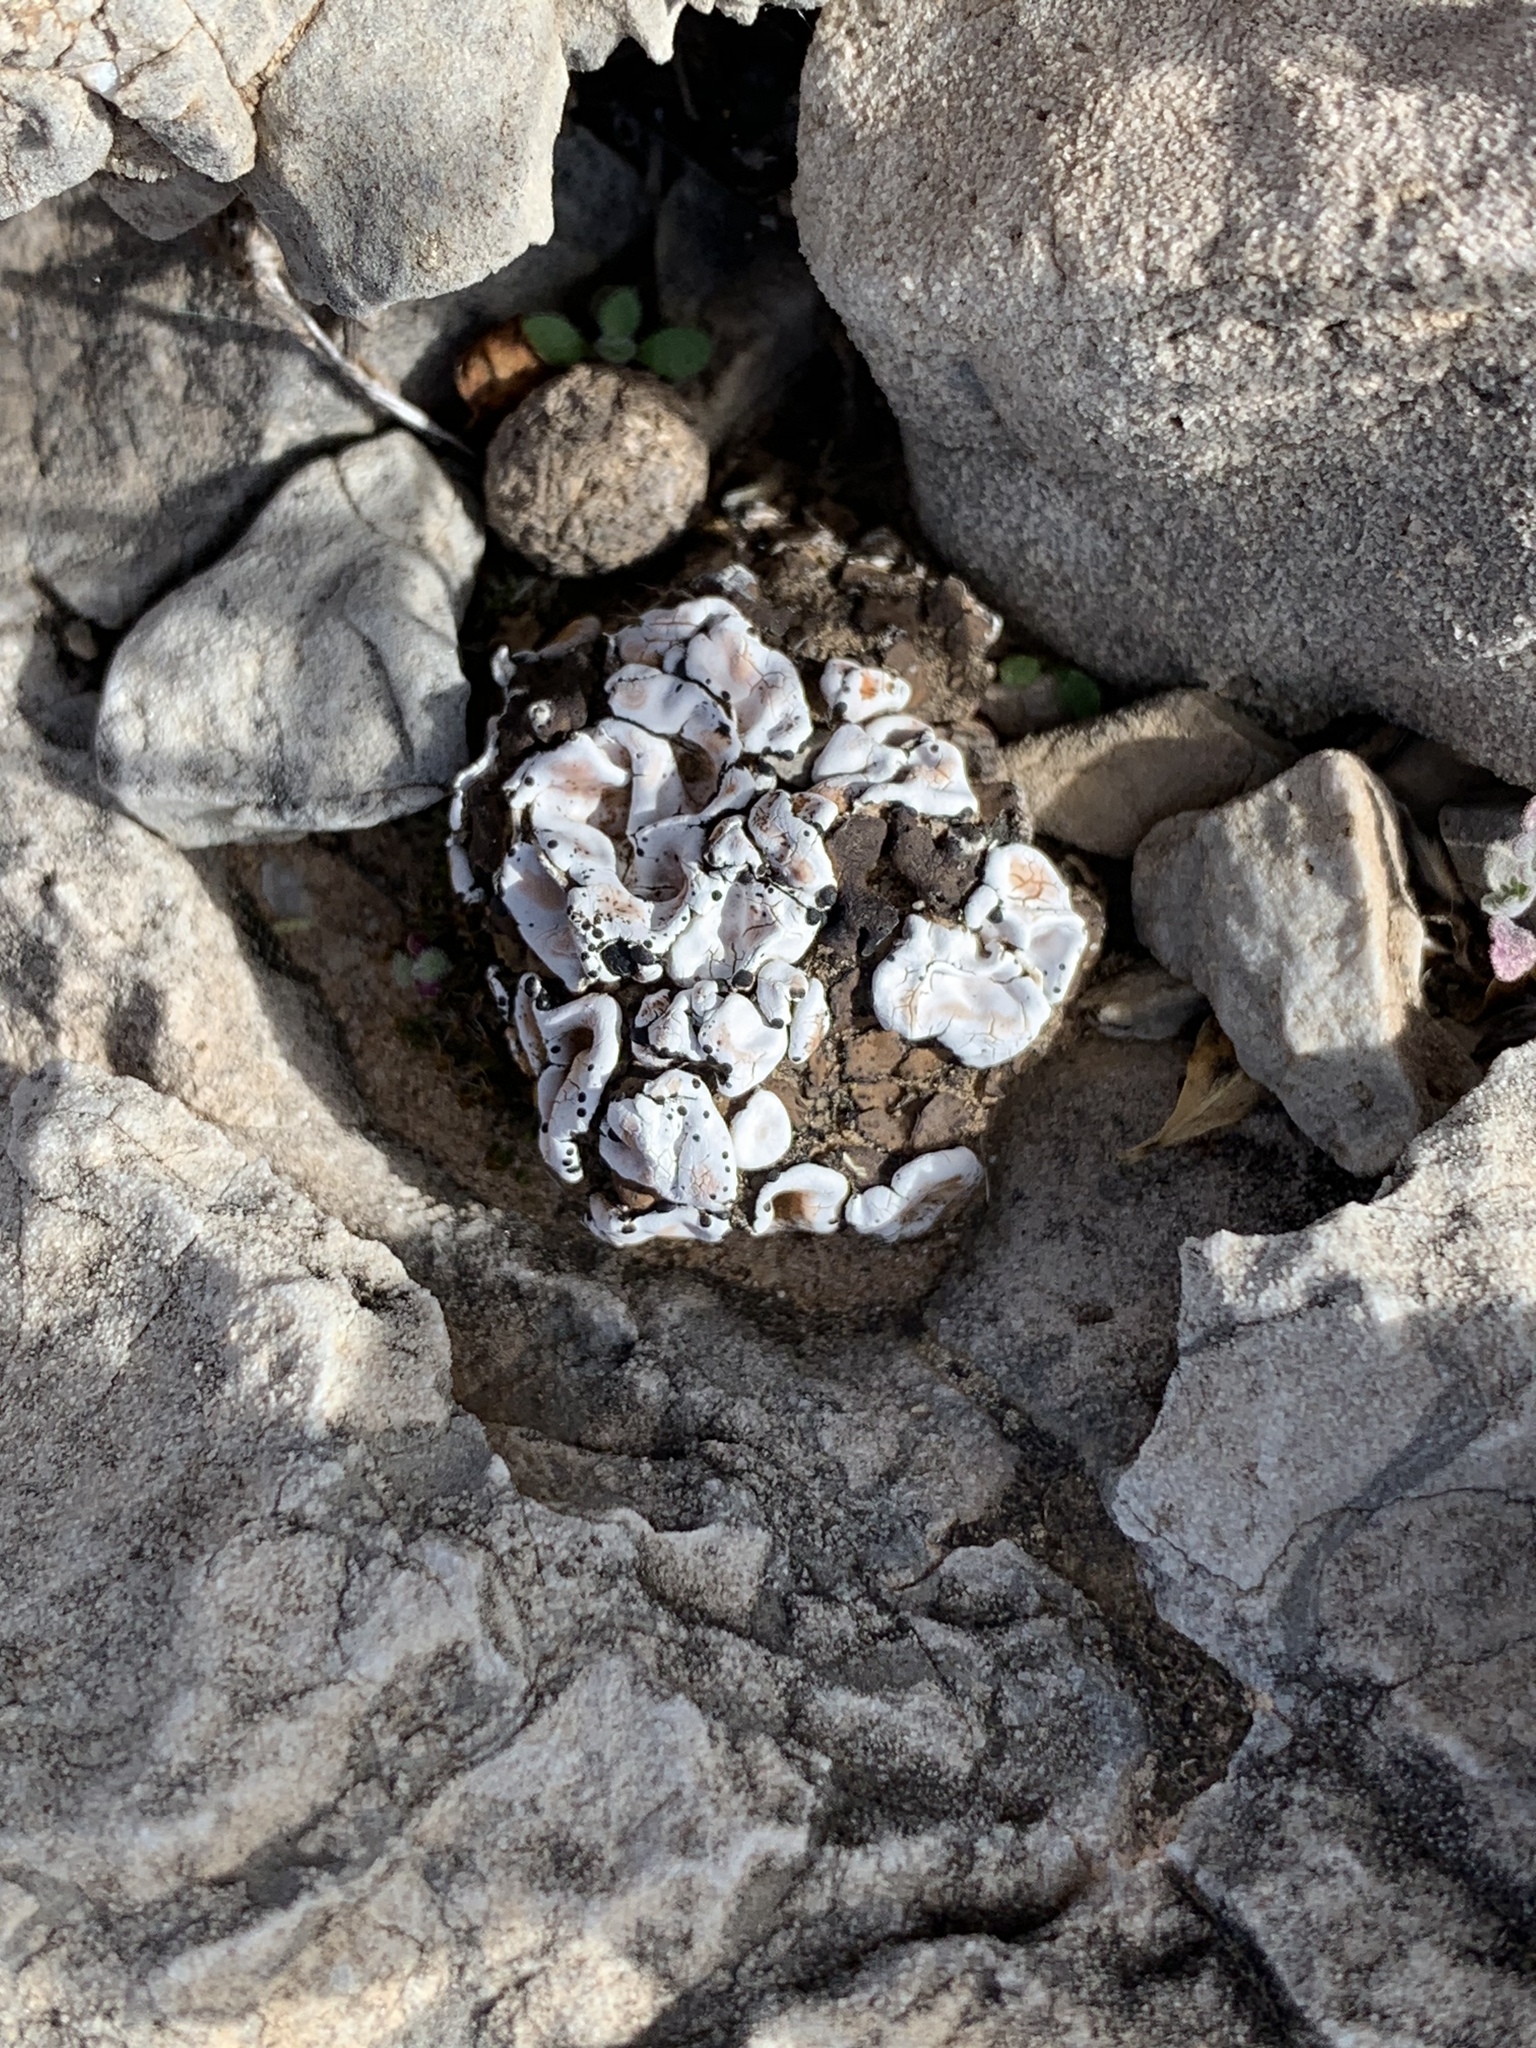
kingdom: Fungi
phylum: Ascomycota
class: Lecanoromycetes
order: Lecanorales
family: Psoraceae
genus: Psora
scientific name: Psora crenata
